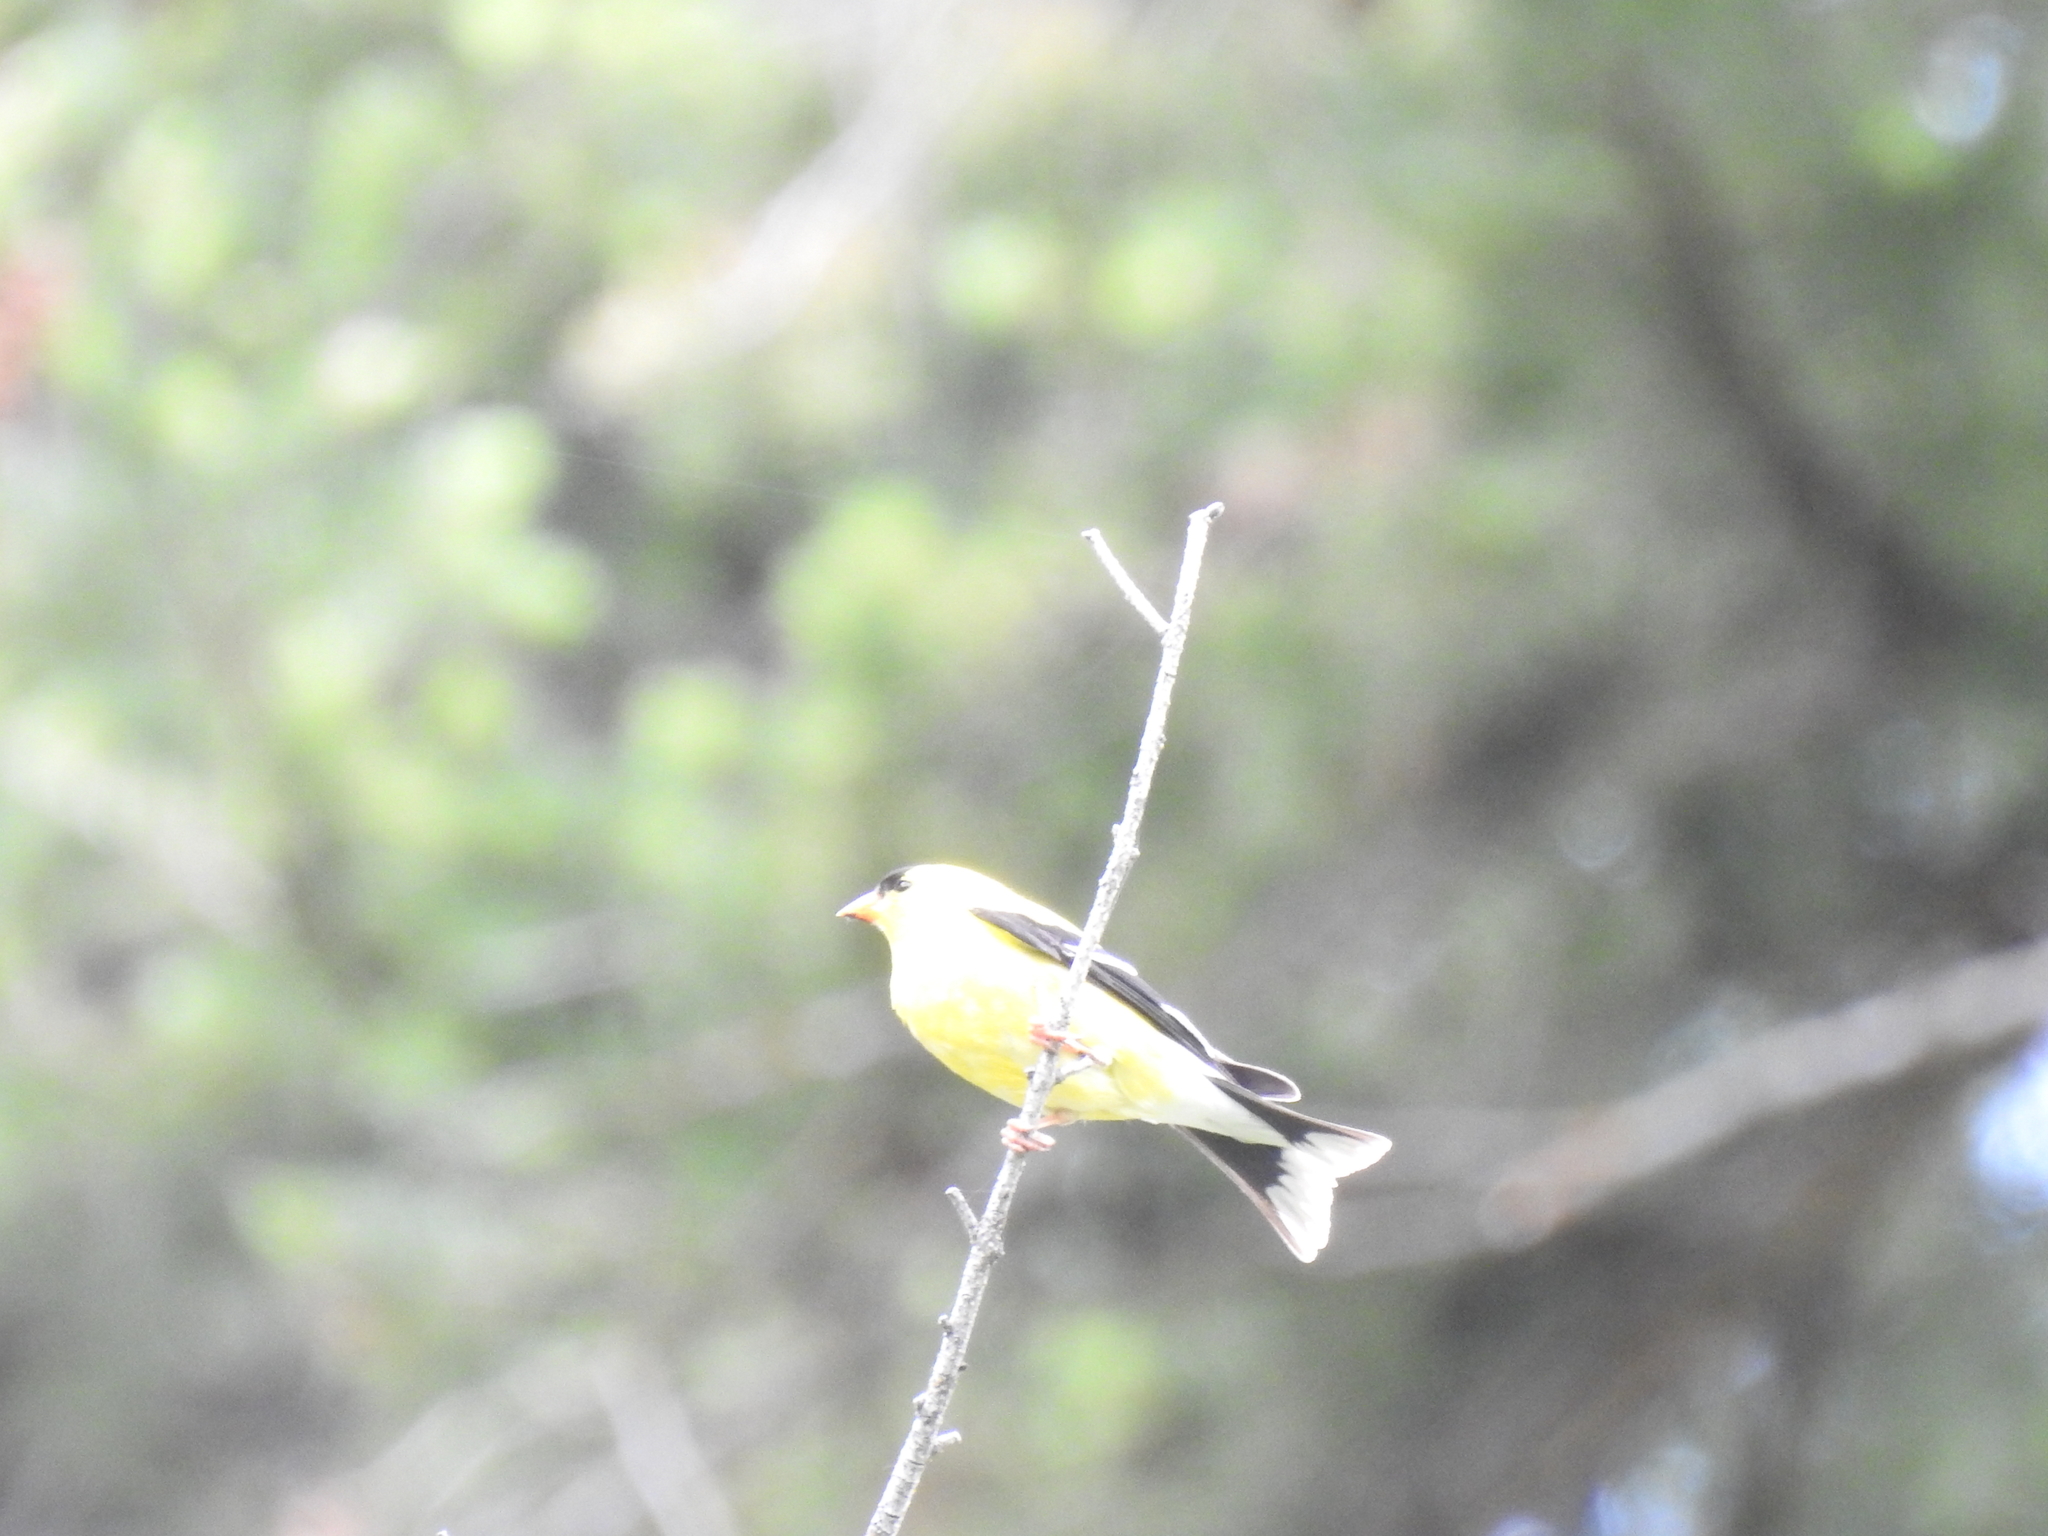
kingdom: Animalia
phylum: Chordata
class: Aves
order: Passeriformes
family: Fringillidae
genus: Spinus
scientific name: Spinus tristis
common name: American goldfinch
